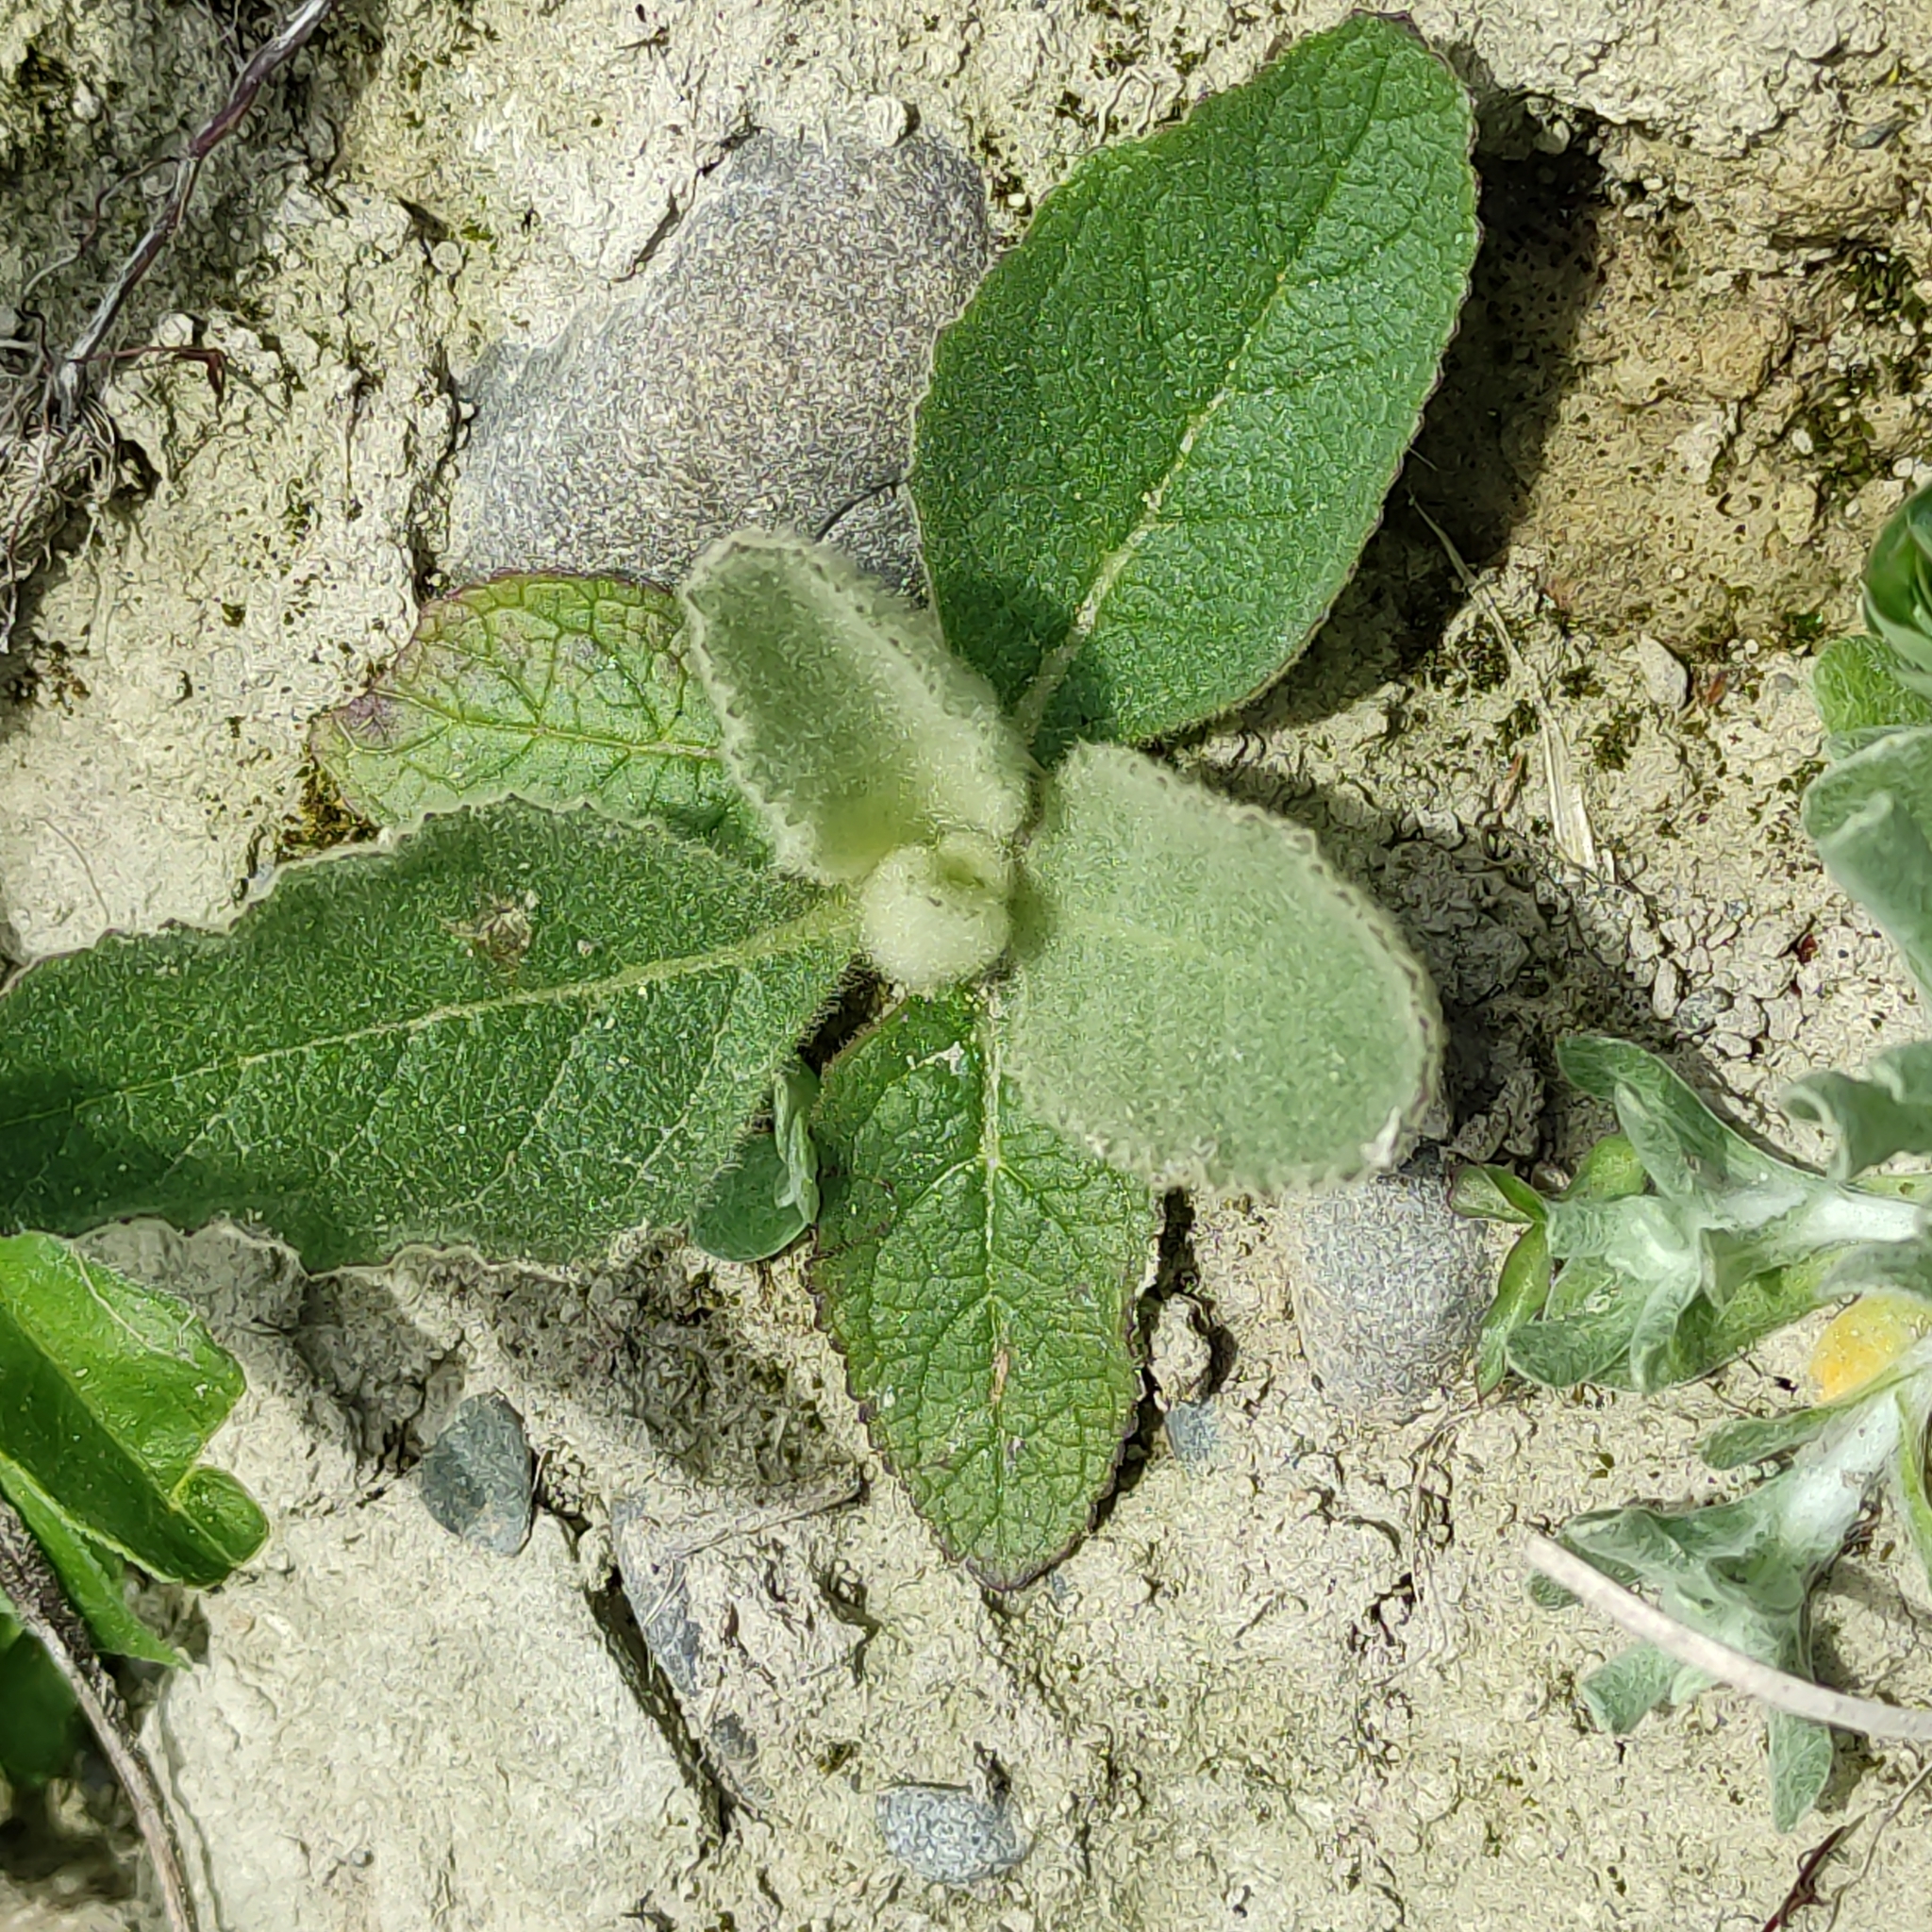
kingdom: Plantae
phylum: Tracheophyta
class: Magnoliopsida
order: Lamiales
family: Scrophulariaceae
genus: Verbascum
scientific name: Verbascum thapsus
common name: Common mullein
